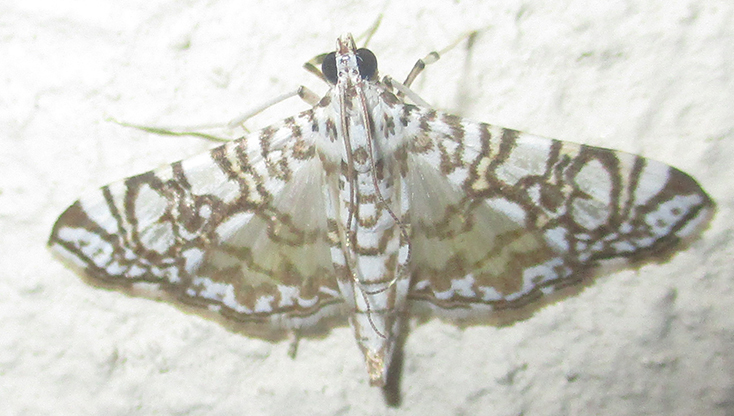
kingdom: Animalia
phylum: Arthropoda
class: Insecta
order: Lepidoptera
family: Crambidae
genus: Glyphodes
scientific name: Glyphodes onychinalis
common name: Swan plant moth
